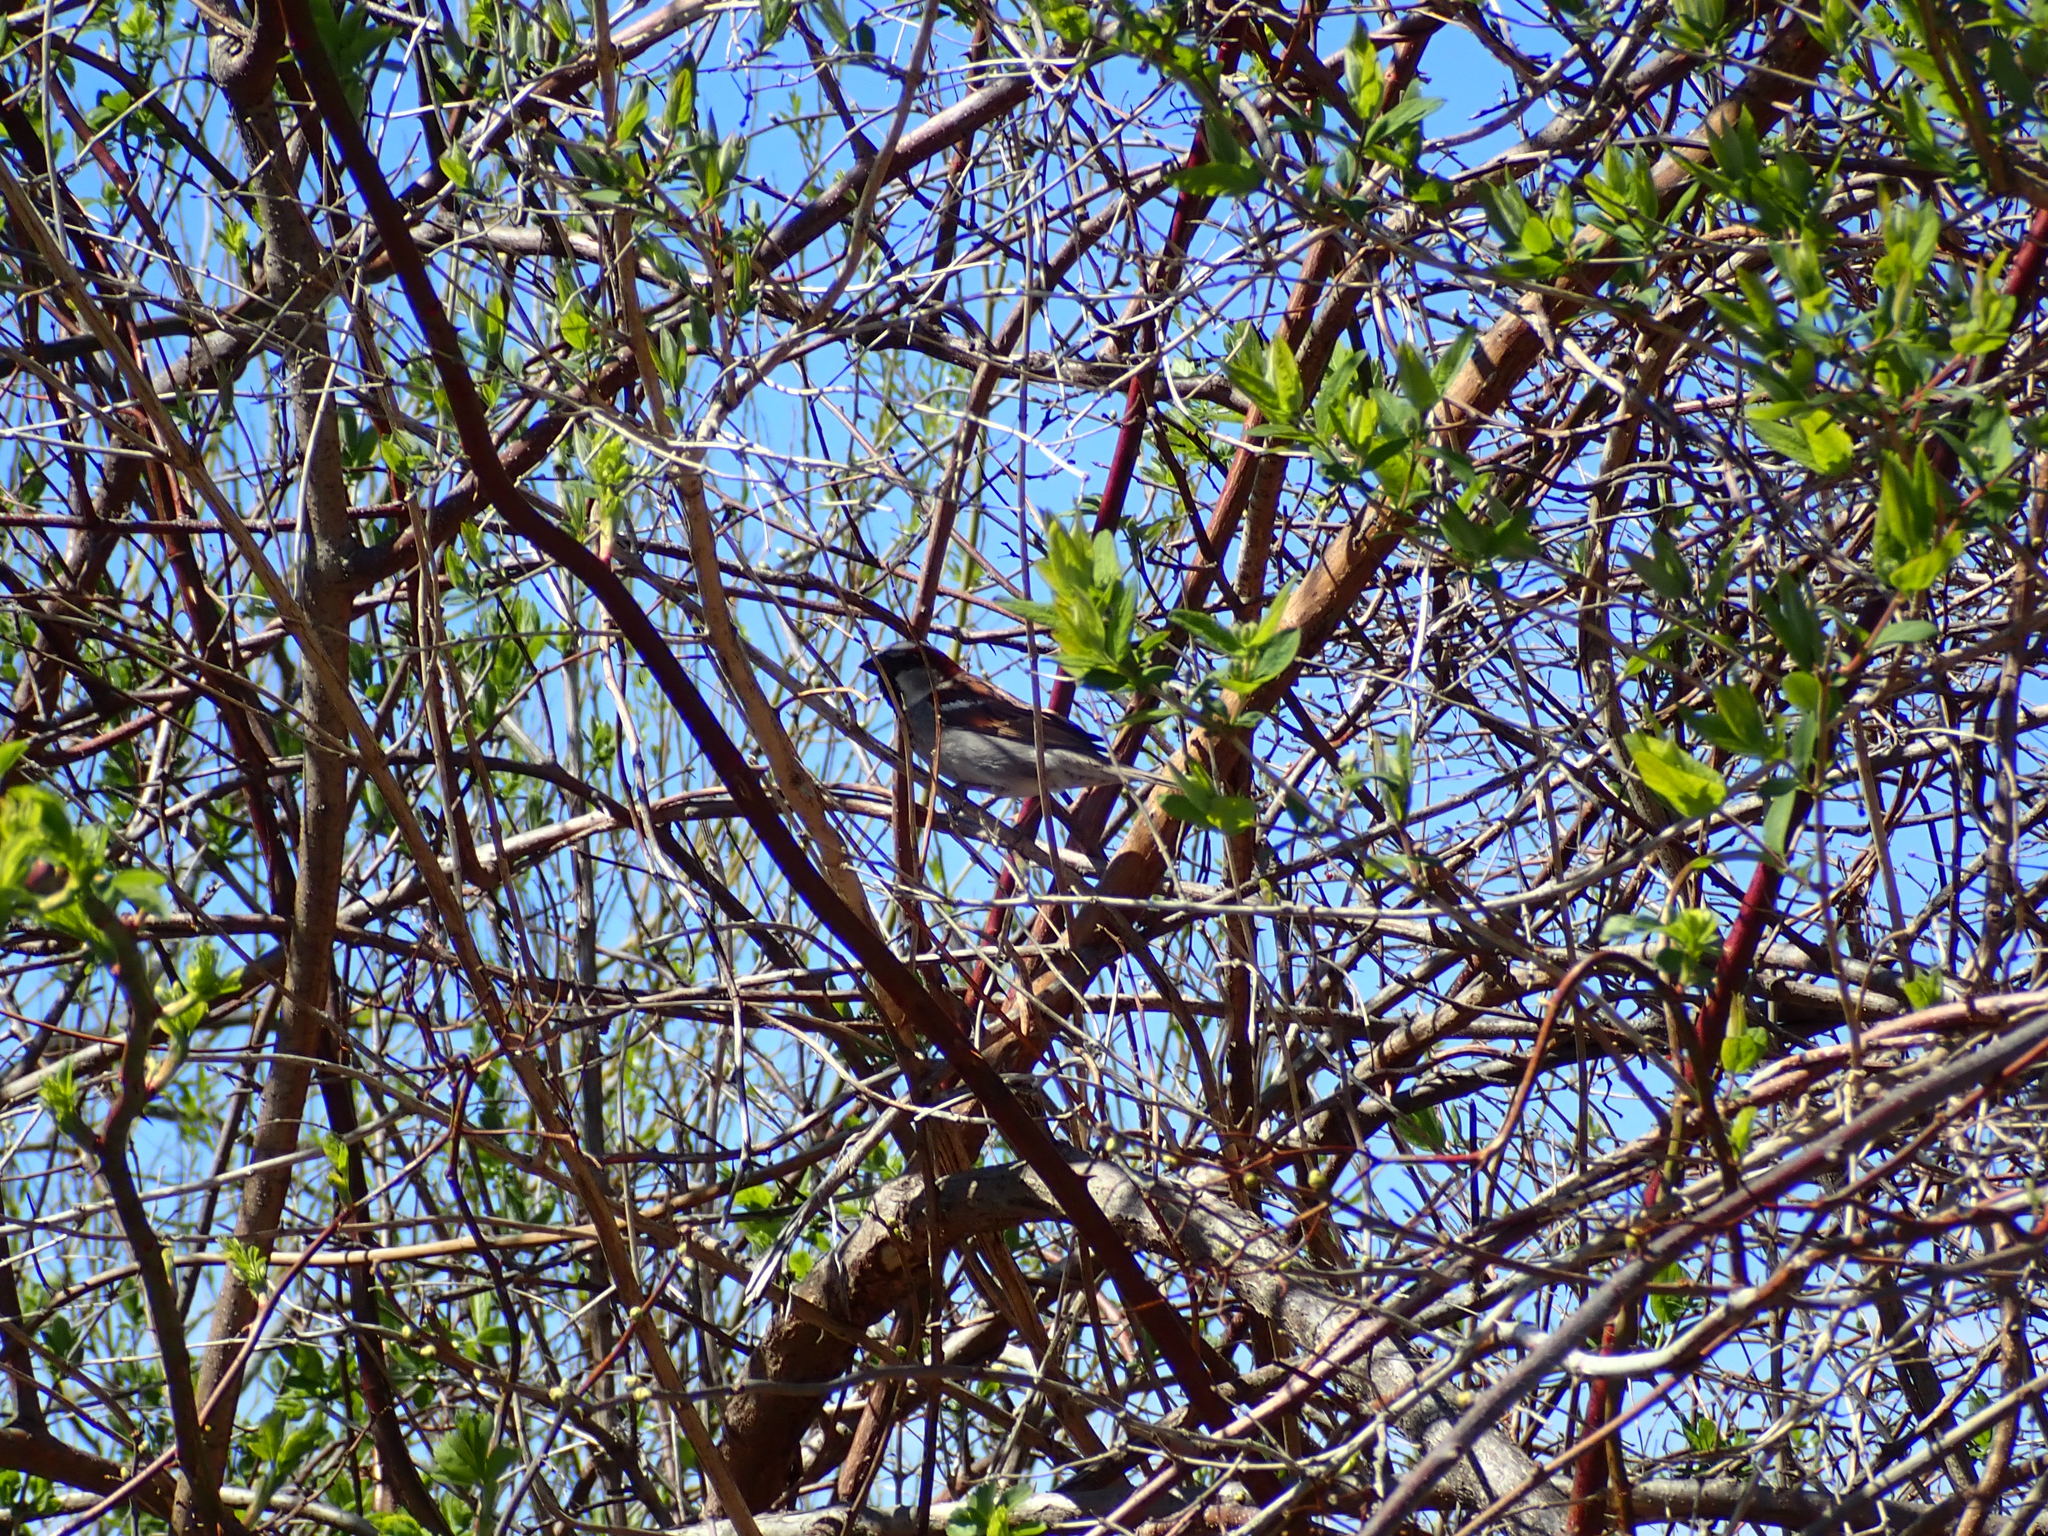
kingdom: Animalia
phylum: Chordata
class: Aves
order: Passeriformes
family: Passeridae
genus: Passer
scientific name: Passer domesticus
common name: House sparrow
